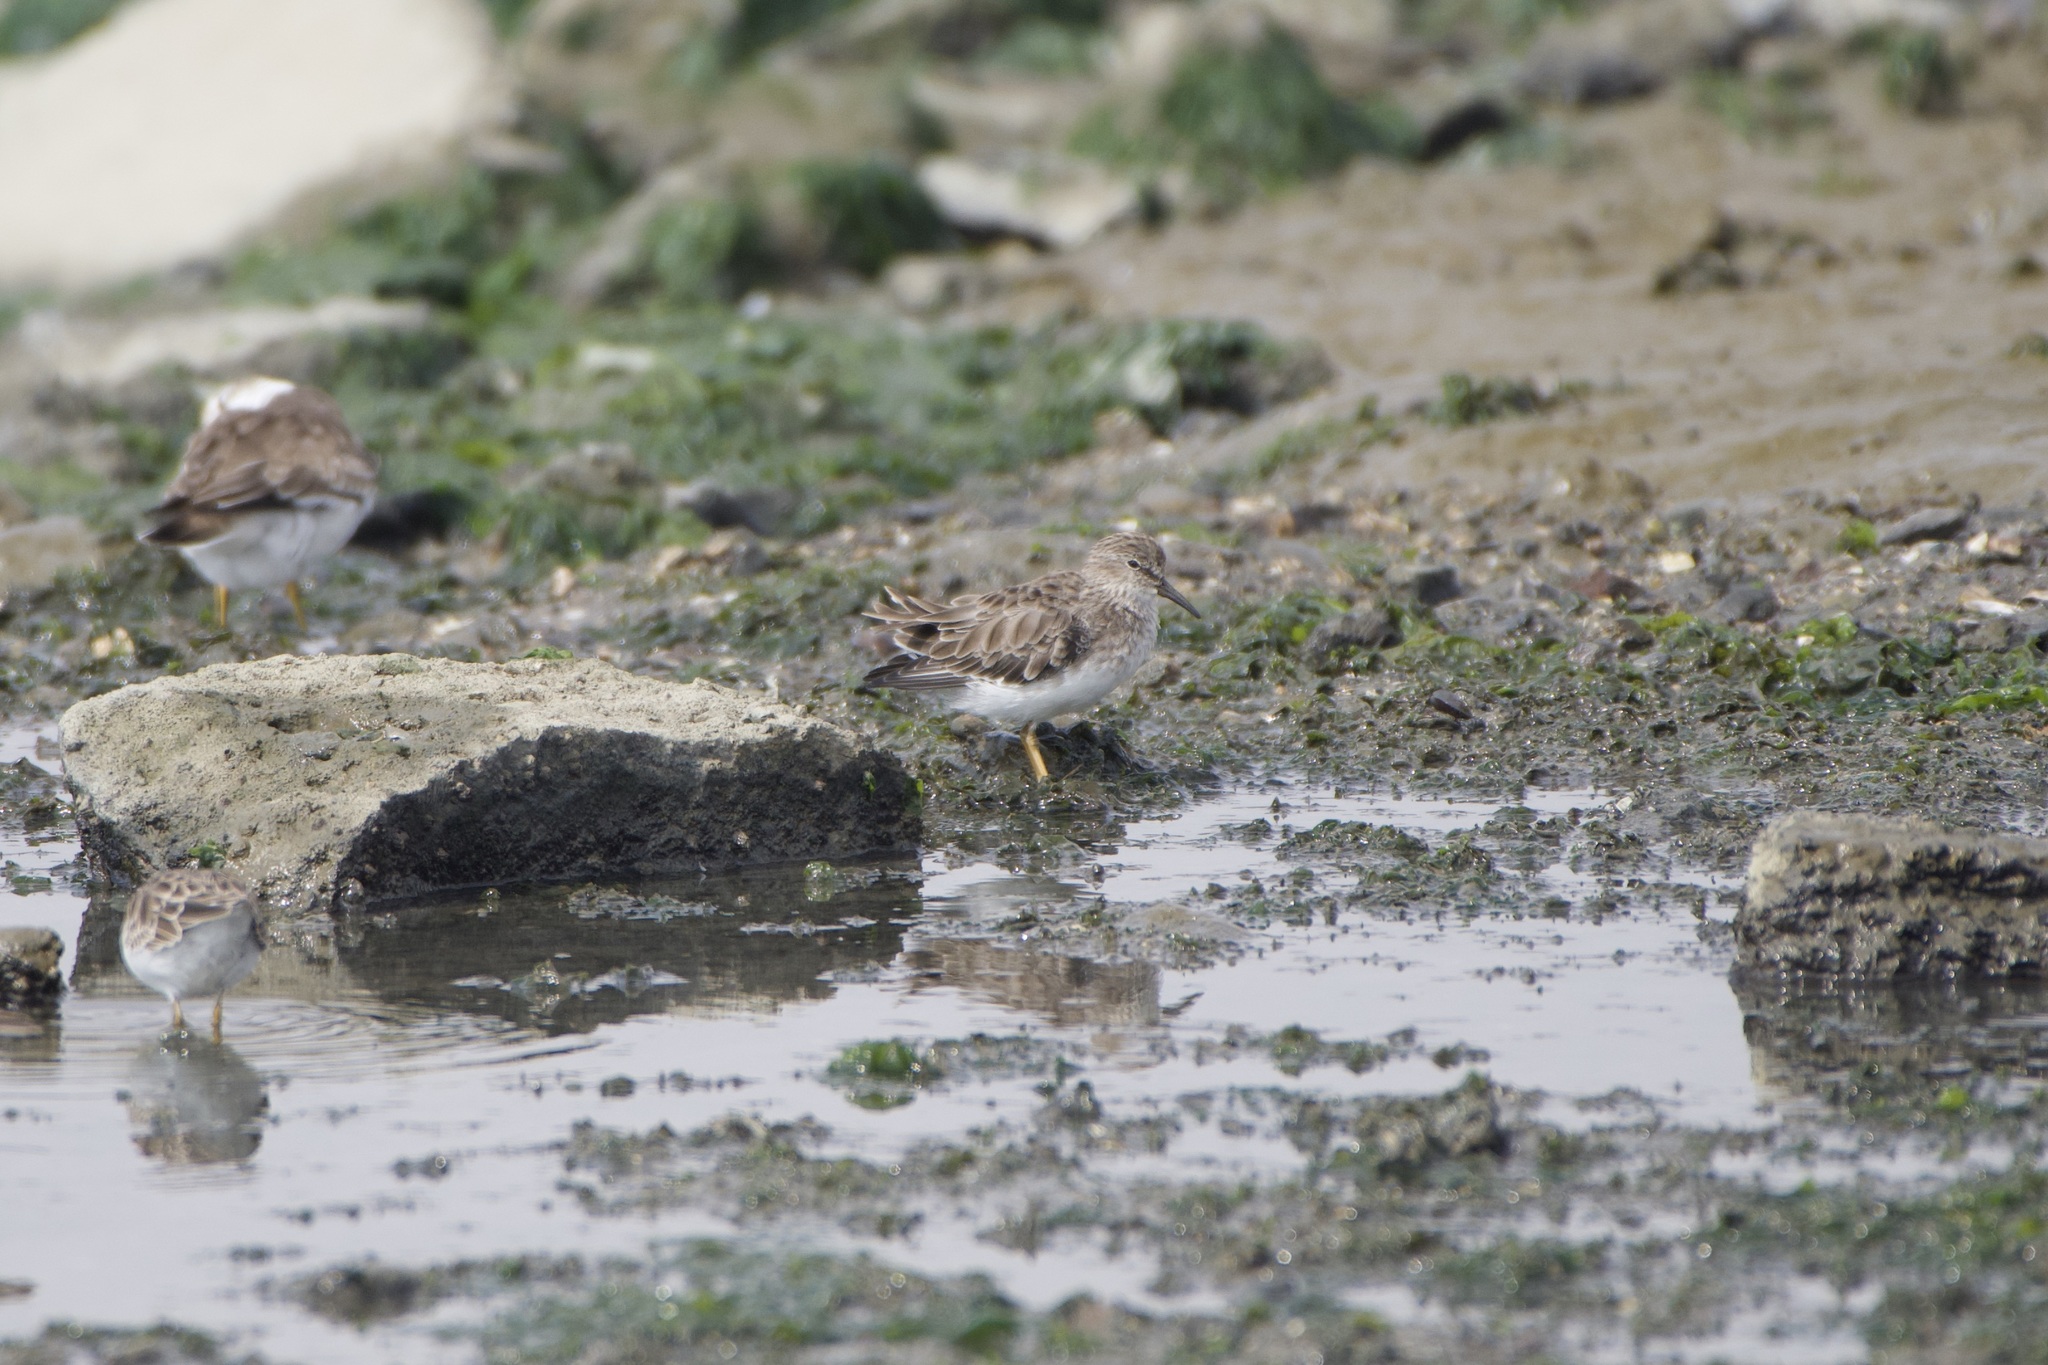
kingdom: Animalia
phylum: Chordata
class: Aves
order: Charadriiformes
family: Scolopacidae
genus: Calidris
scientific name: Calidris minutilla
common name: Least sandpiper
